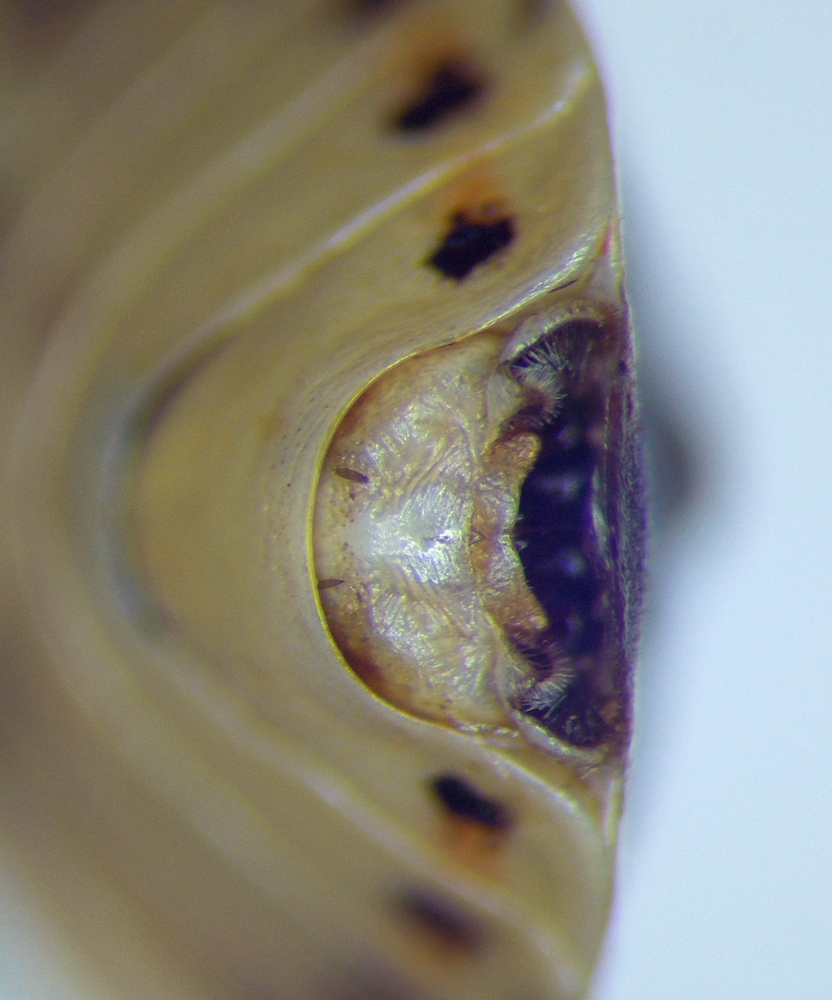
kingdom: Animalia
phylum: Arthropoda
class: Insecta
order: Hemiptera
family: Pentatomidae
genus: Eurydema
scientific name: Eurydema ornata
